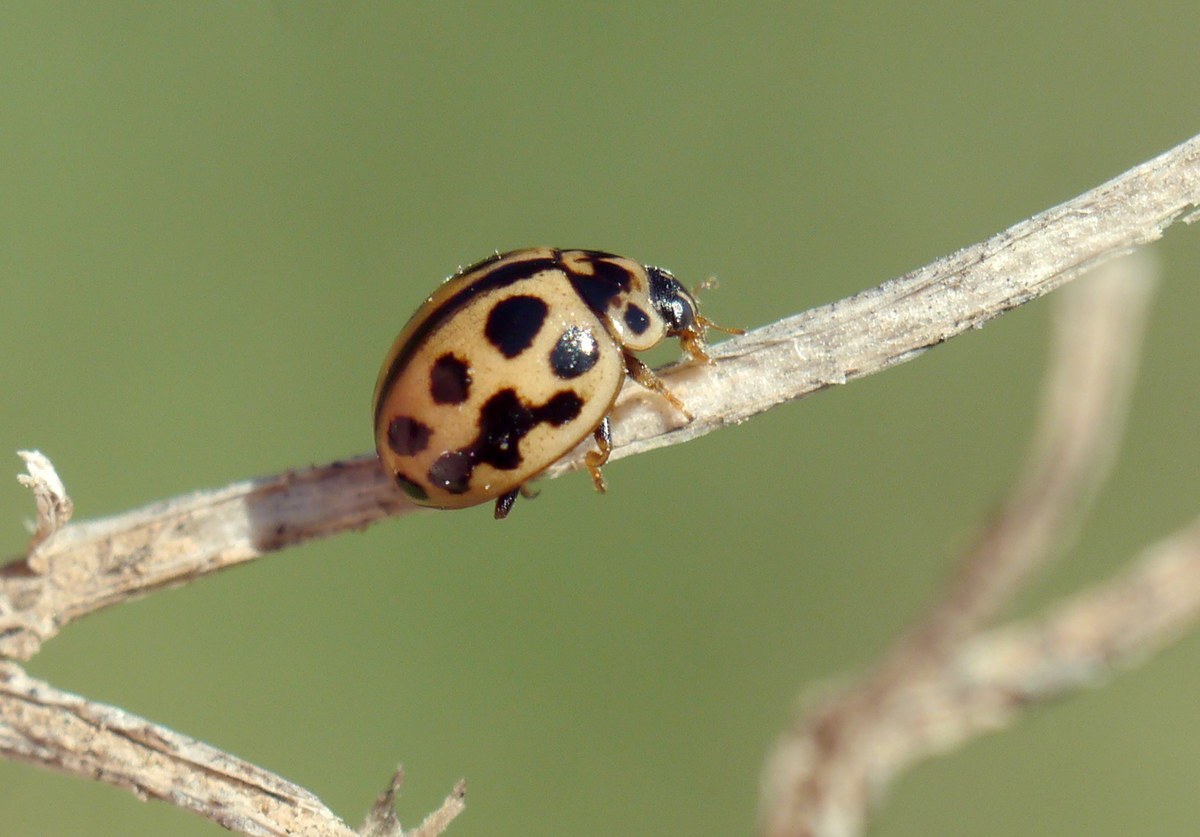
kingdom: Animalia
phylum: Arthropoda
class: Insecta
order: Coleoptera
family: Coccinellidae
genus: Tytthaspis
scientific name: Tytthaspis sedecimpunctata
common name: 16-spot ladybird
